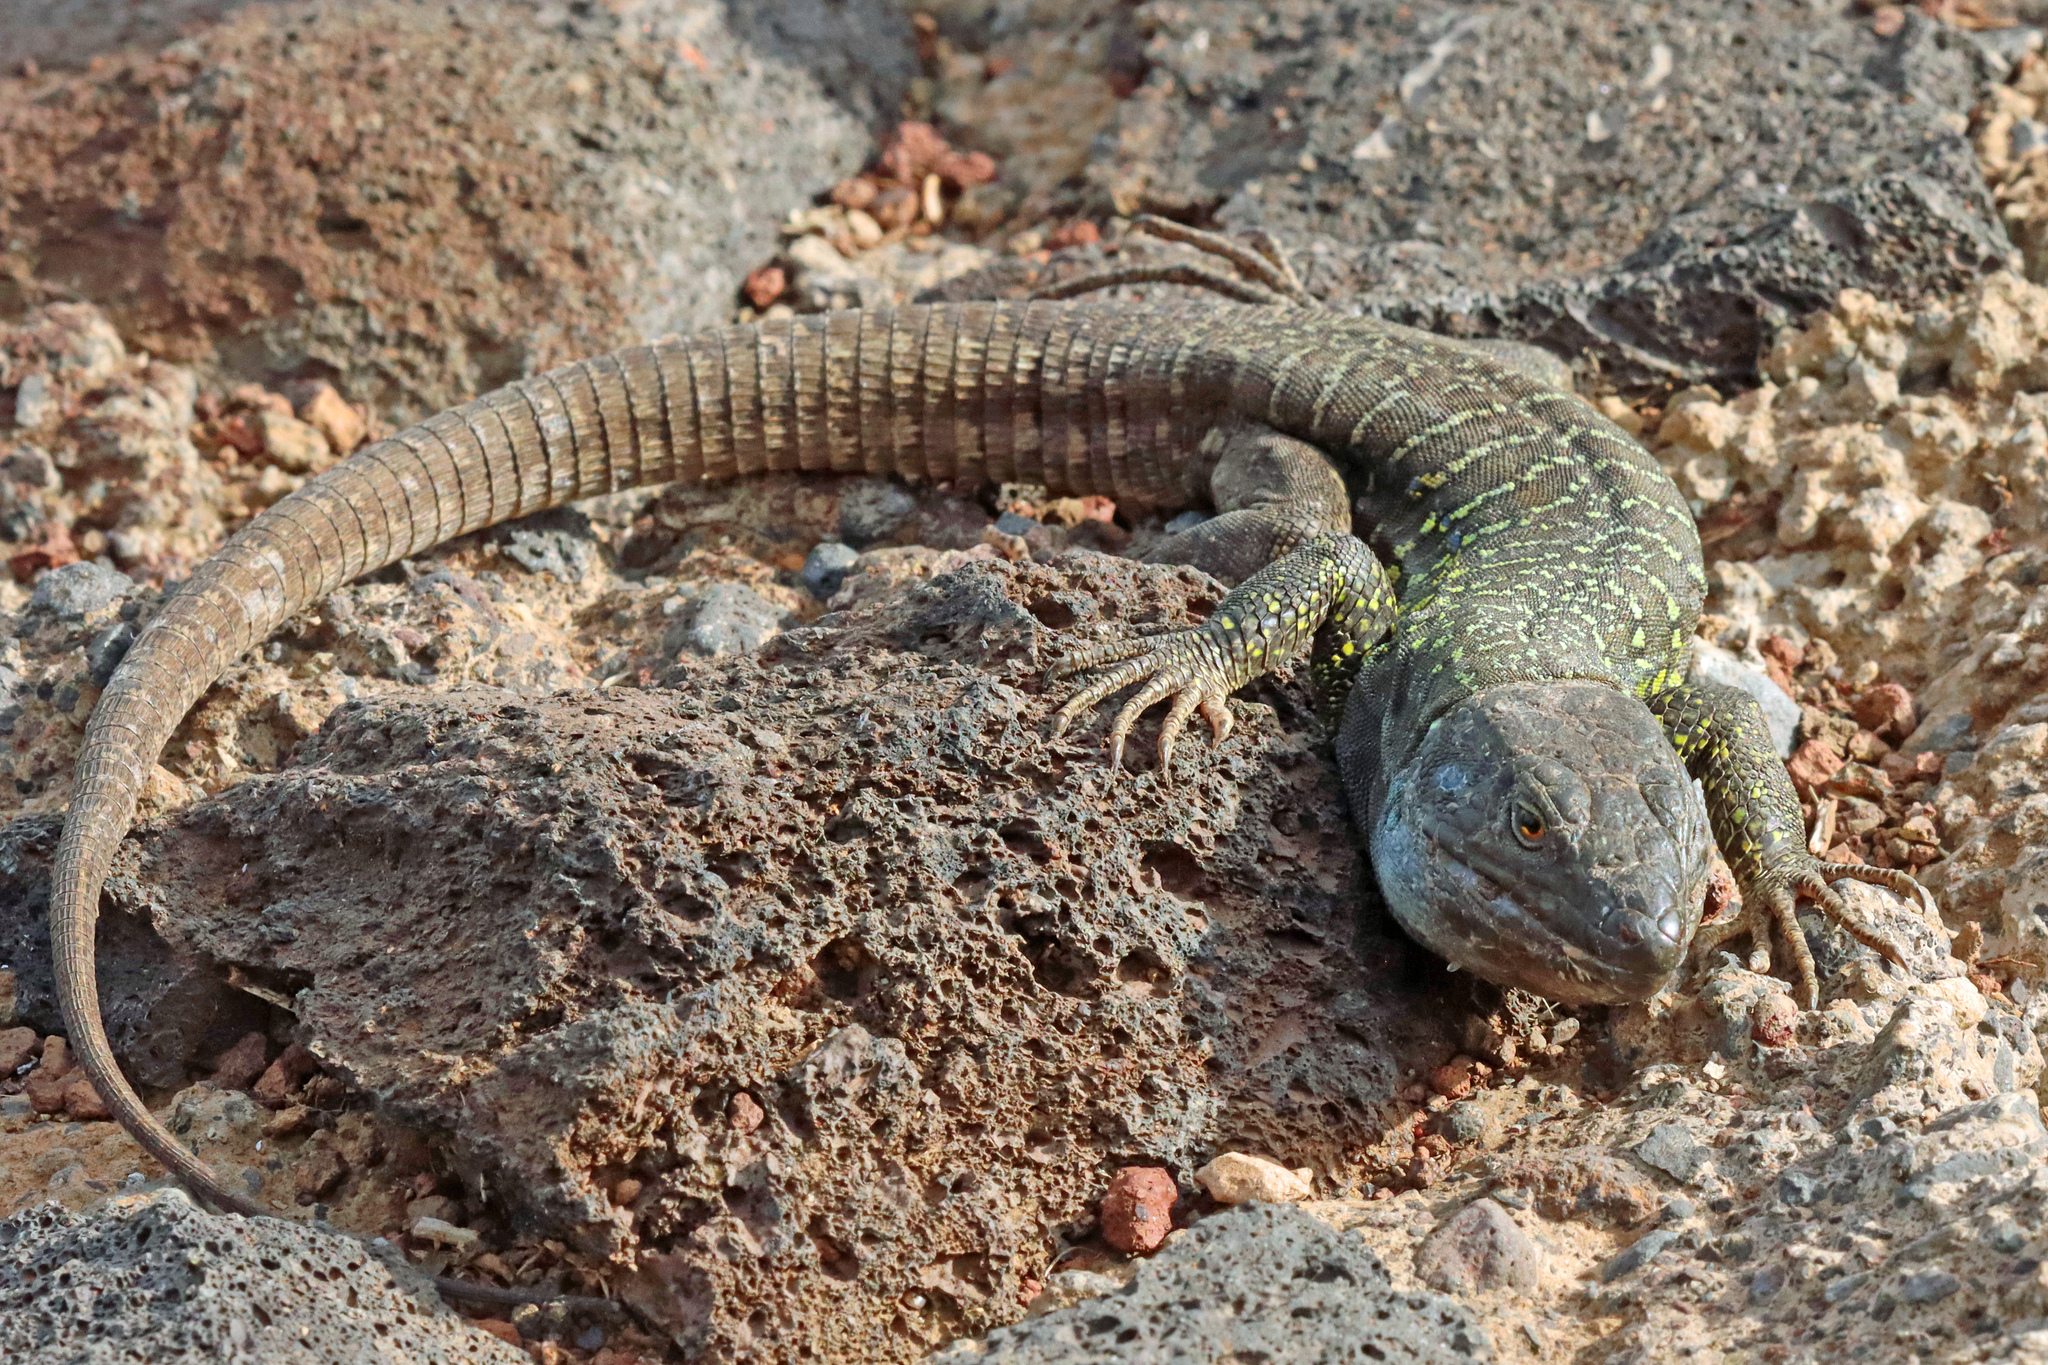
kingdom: Animalia
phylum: Chordata
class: Squamata
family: Lacertidae
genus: Gallotia
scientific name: Gallotia galloti
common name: Gallot's lizard
